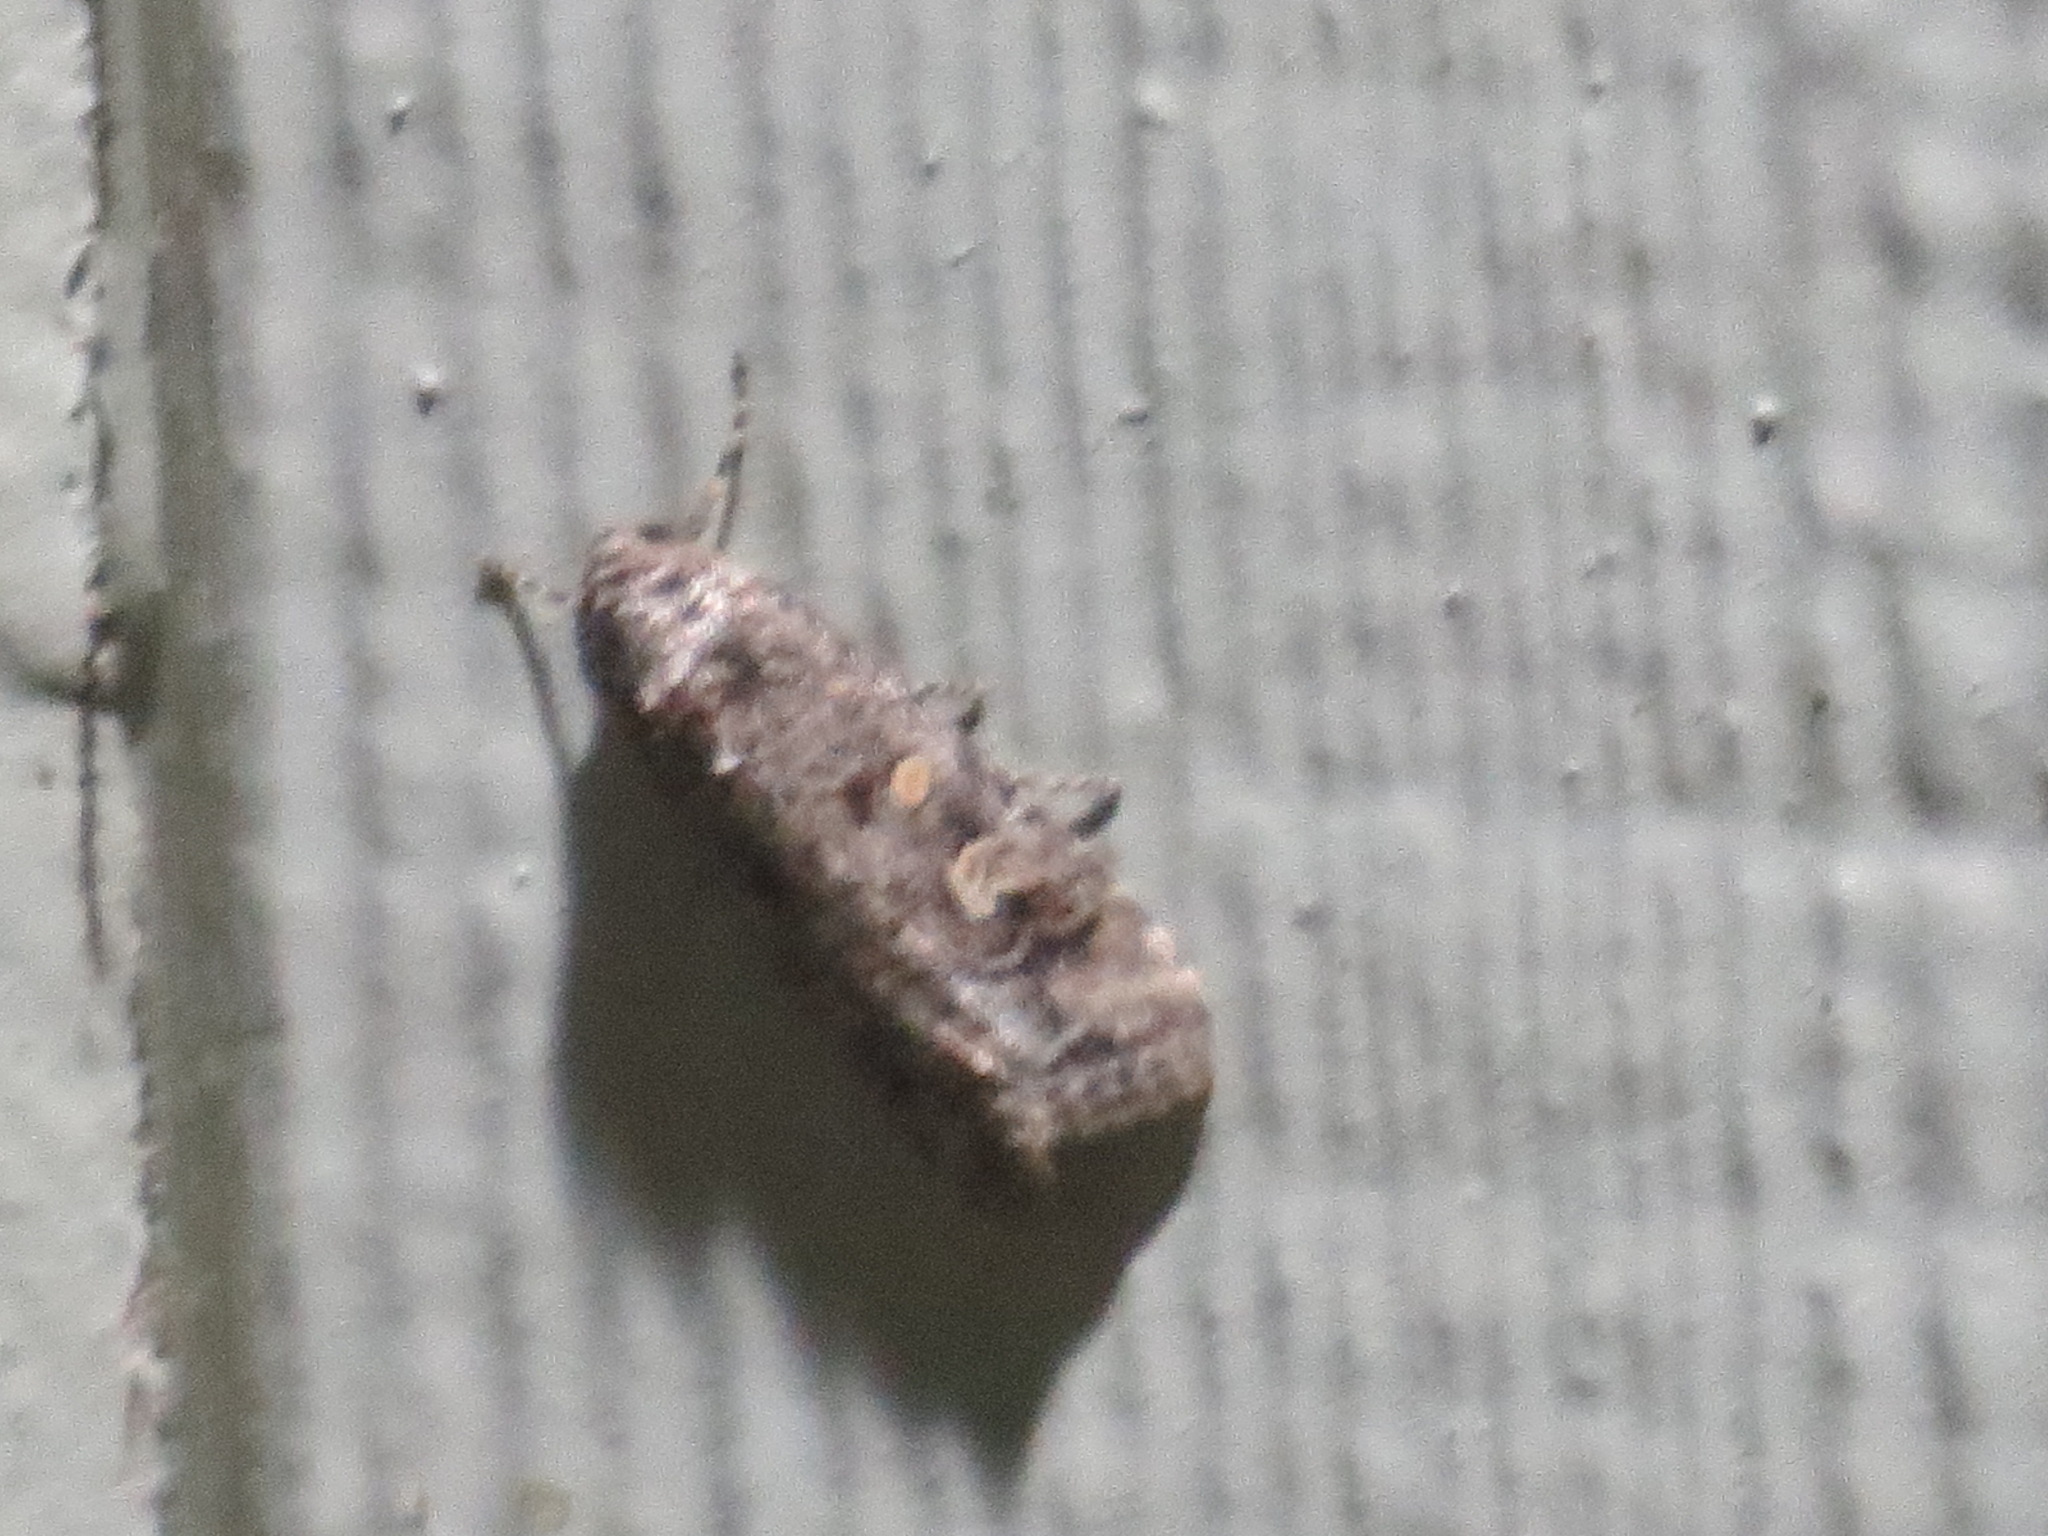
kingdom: Animalia
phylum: Arthropoda
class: Insecta
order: Lepidoptera
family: Noctuidae
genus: Spodoptera
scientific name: Spodoptera exigua
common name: Beet armyworm
